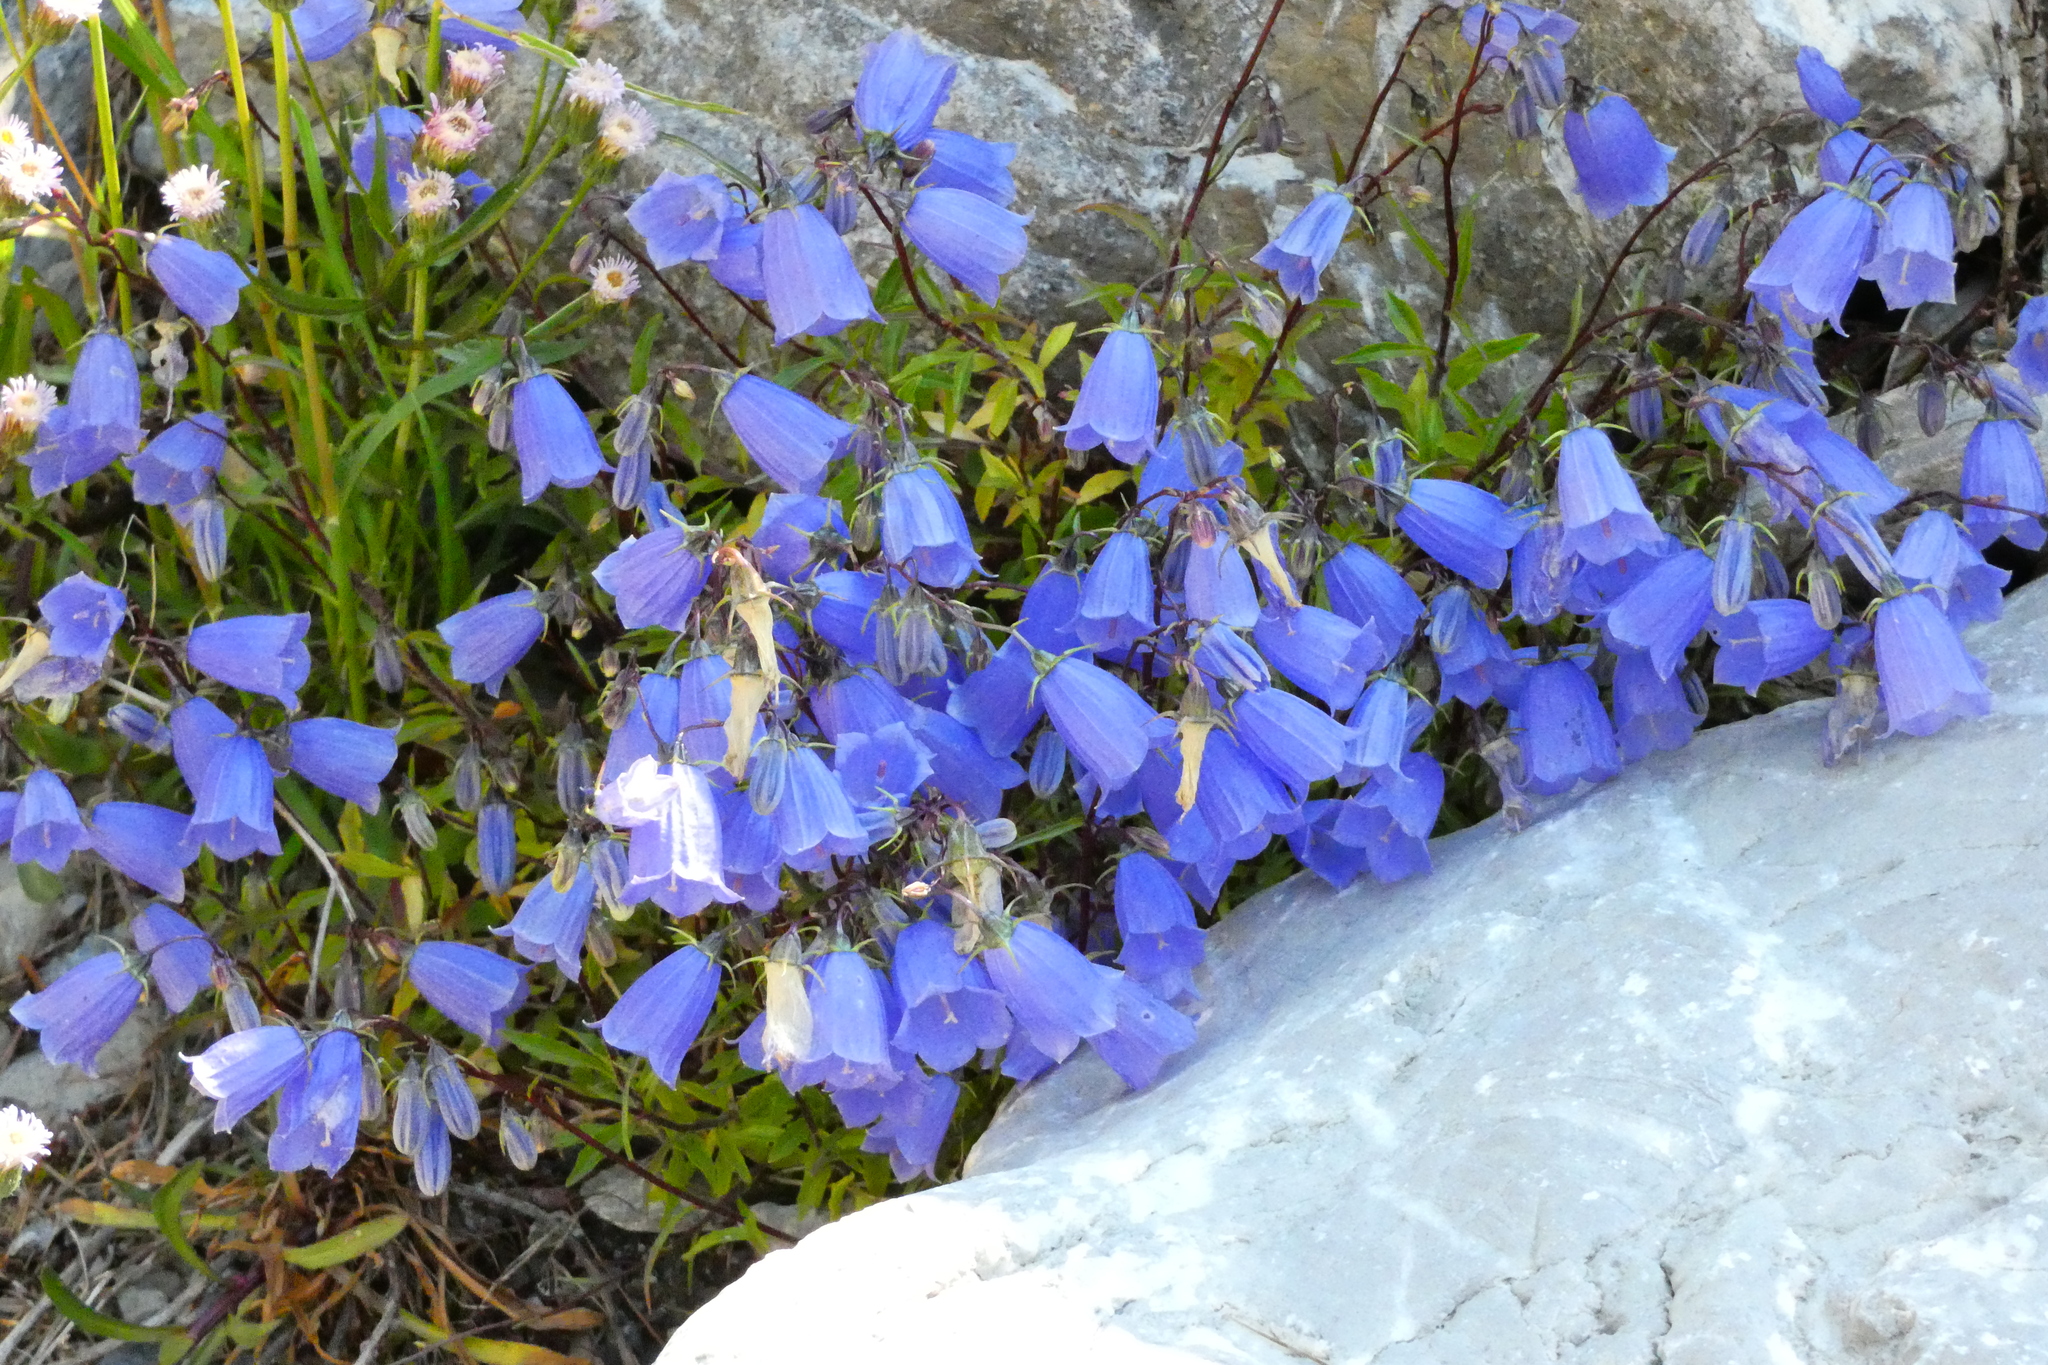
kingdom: Plantae
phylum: Tracheophyta
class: Magnoliopsida
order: Asterales
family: Campanulaceae
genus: Campanula
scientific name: Campanula cochleariifolia
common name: Fairies'-thimbles
